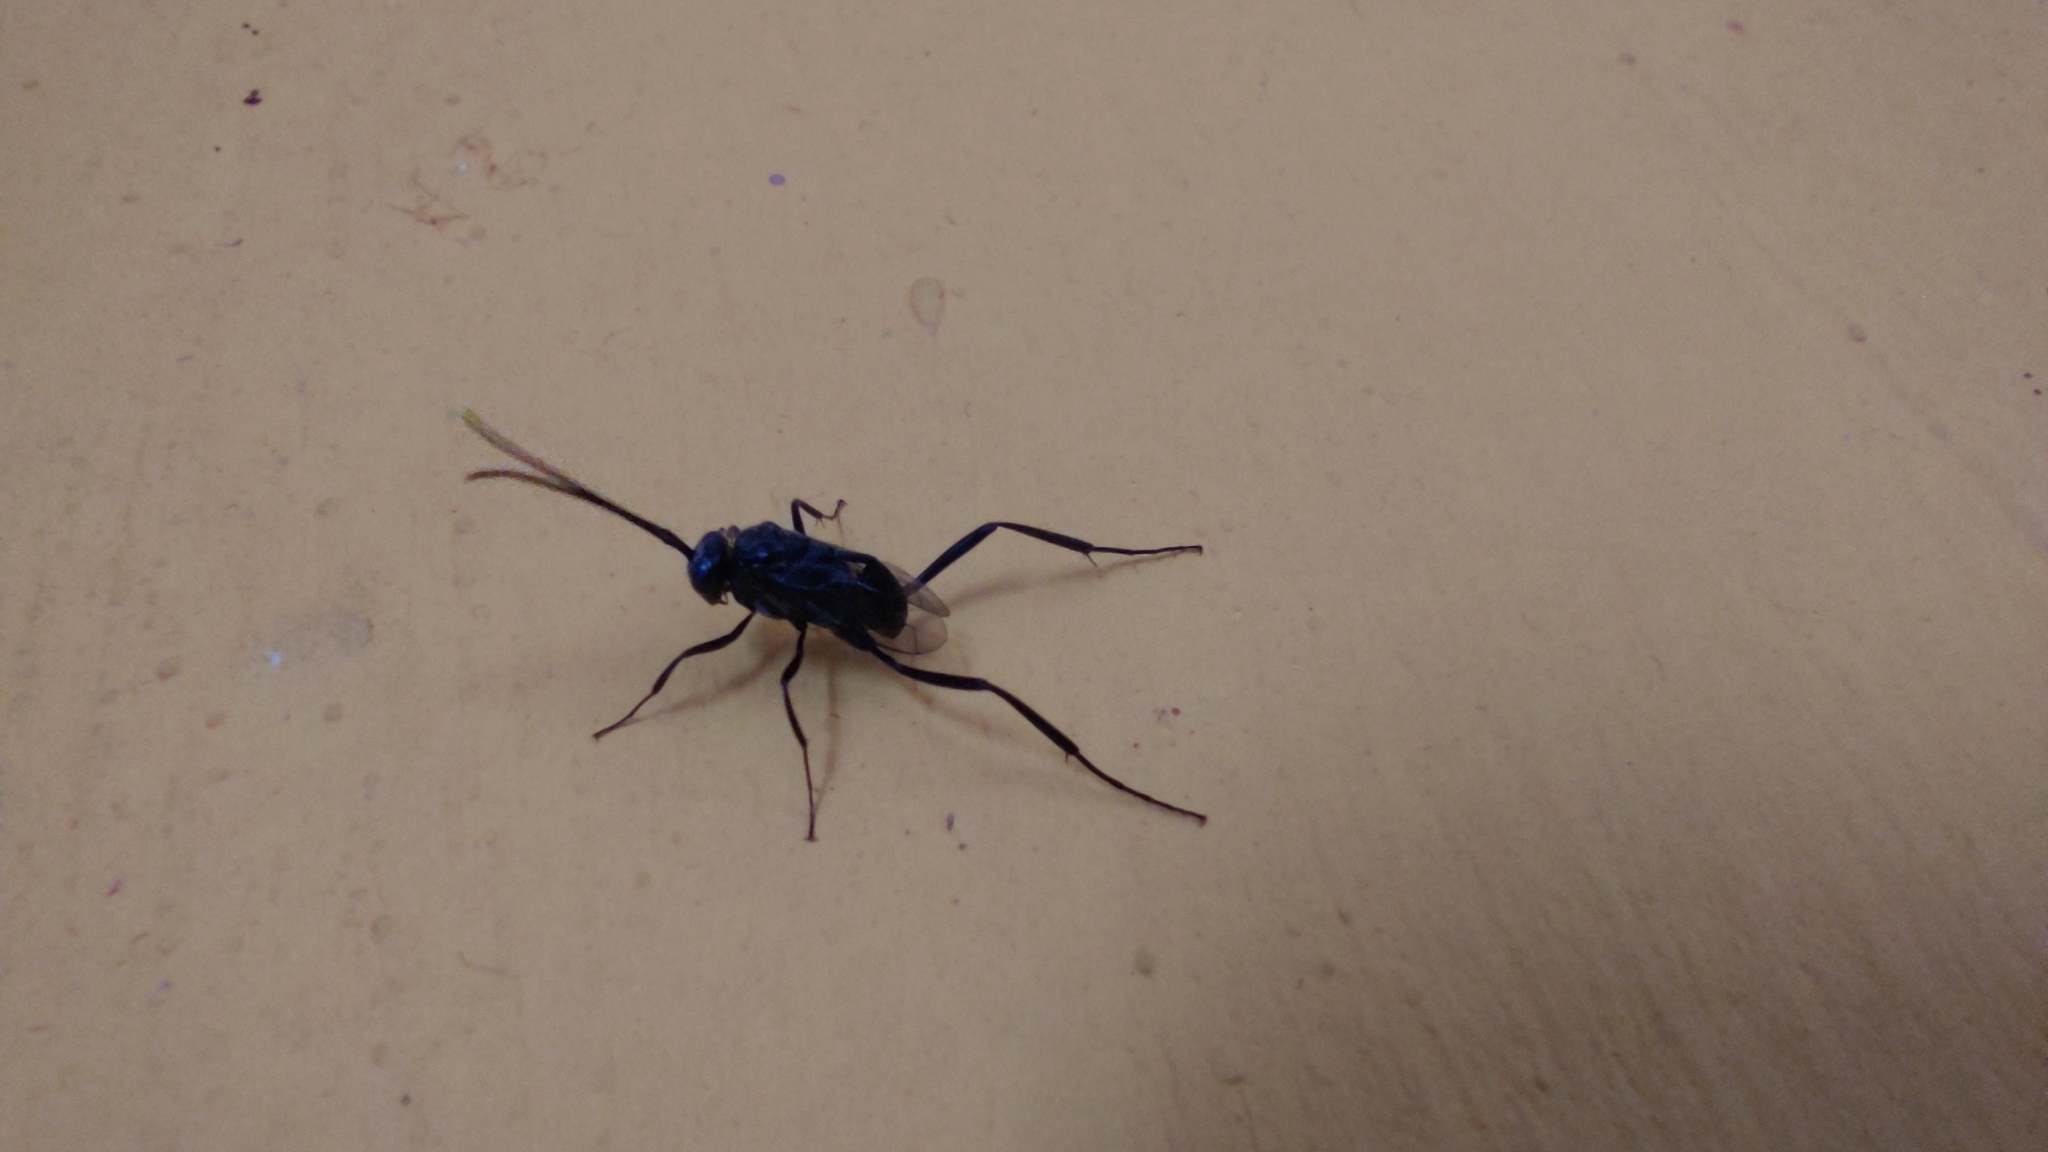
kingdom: Animalia
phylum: Arthropoda
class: Insecta
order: Hymenoptera
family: Evaniidae
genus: Evania
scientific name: Evania appendigaster
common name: Ensign wasp
